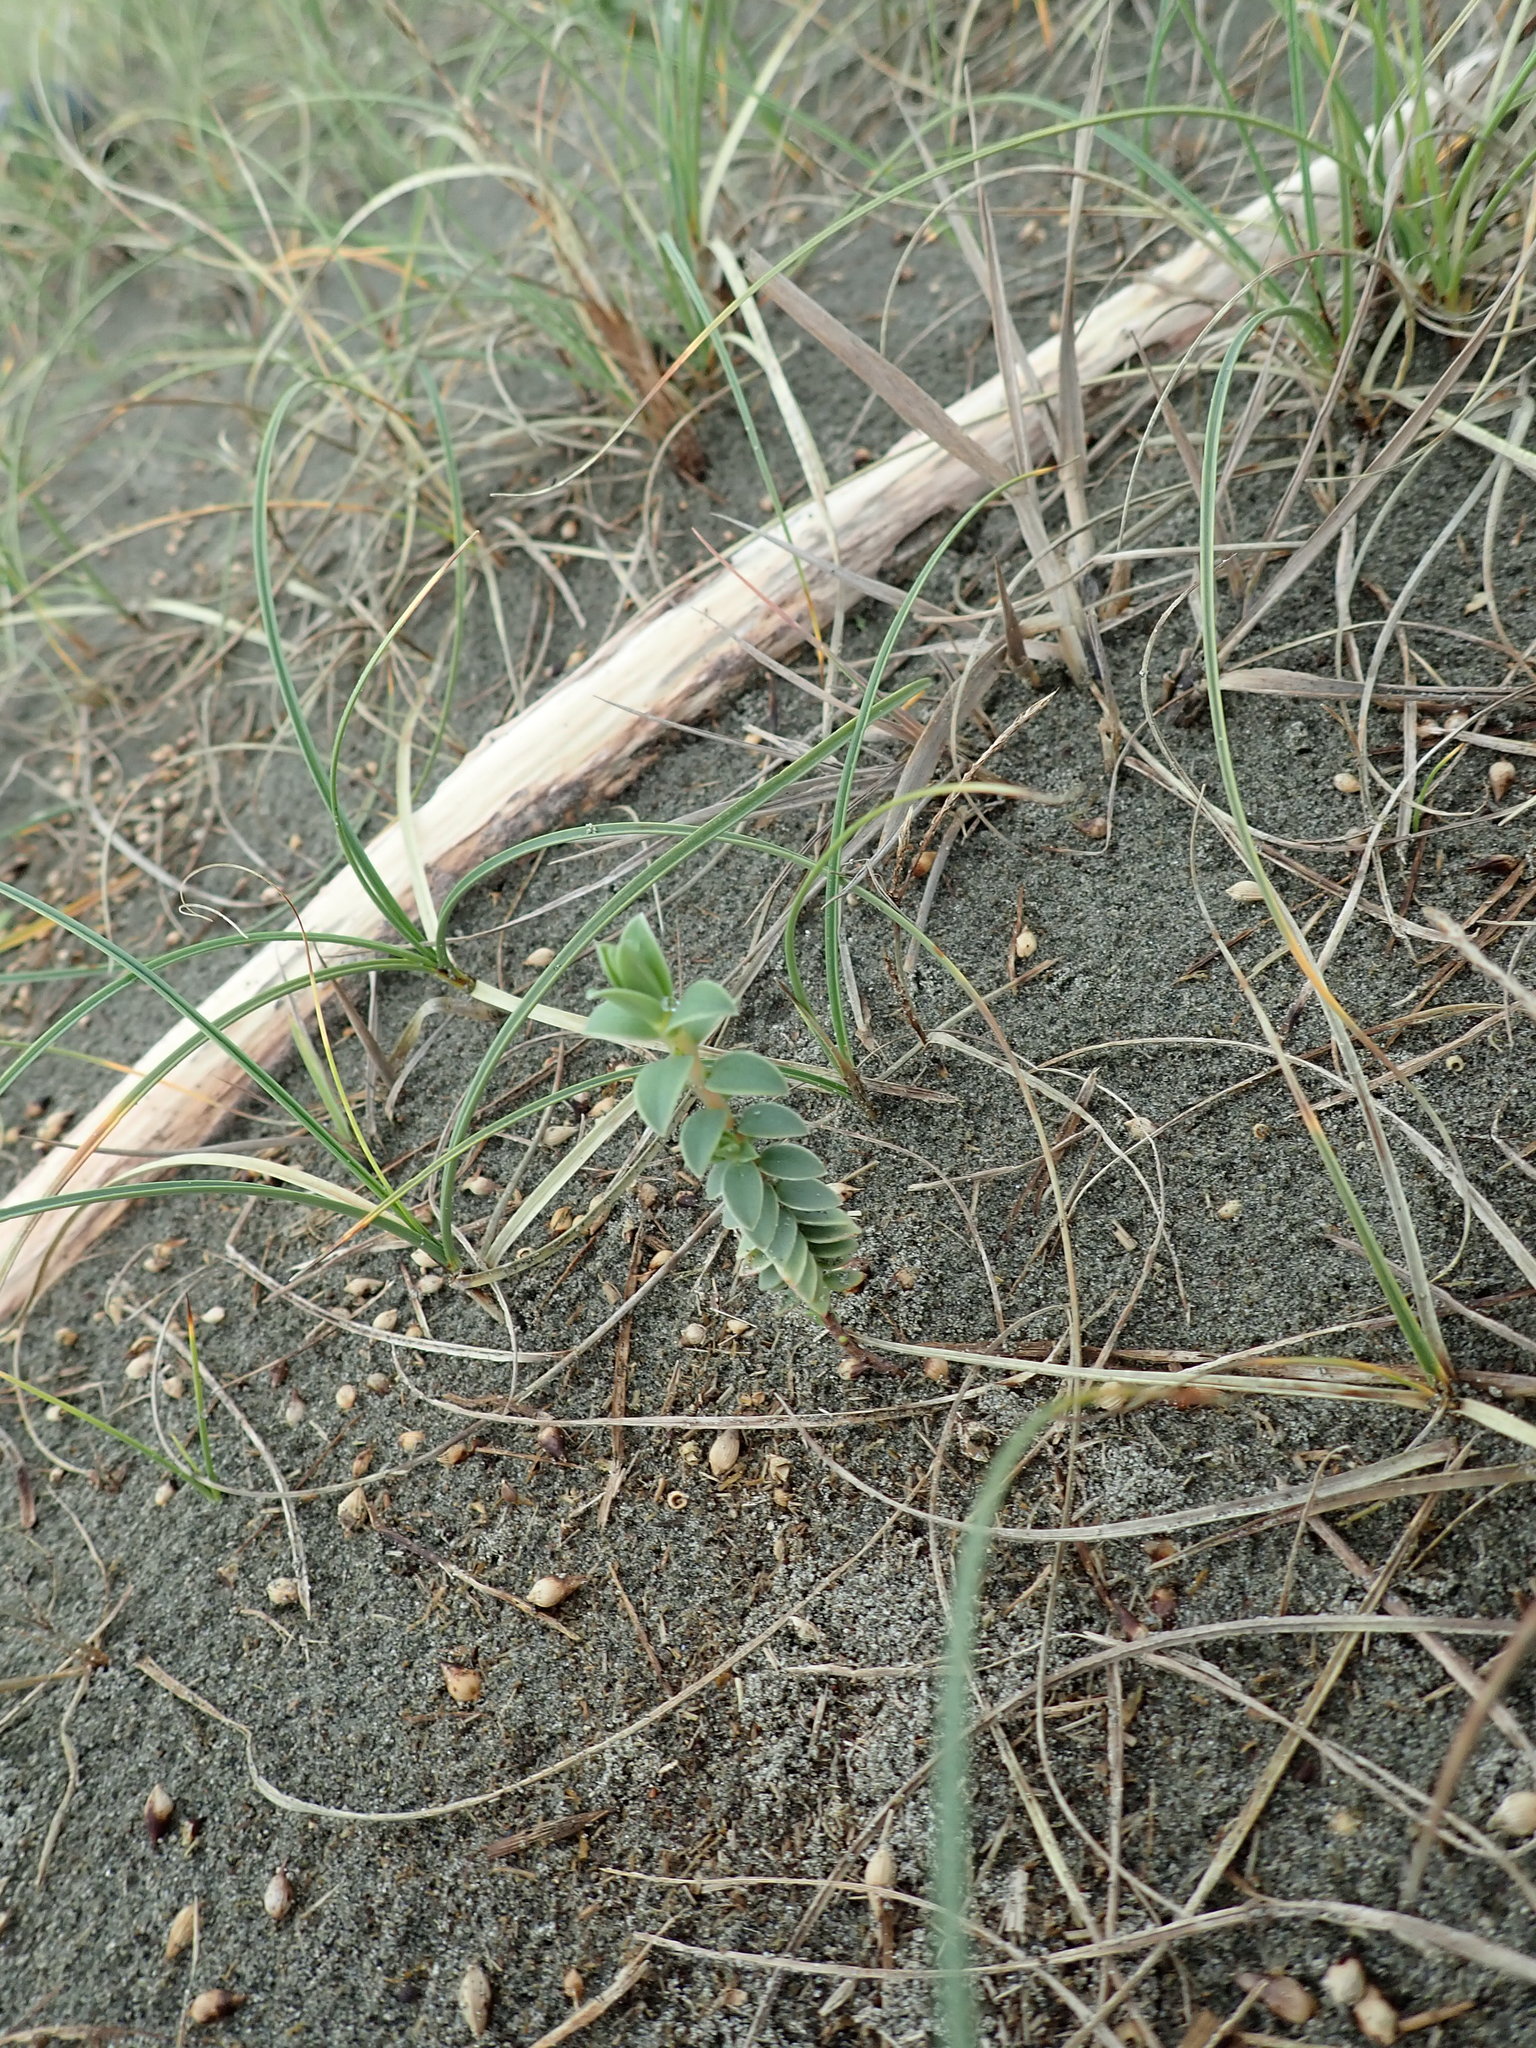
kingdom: Plantae
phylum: Tracheophyta
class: Magnoliopsida
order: Malvales
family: Thymelaeaceae
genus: Pimelea
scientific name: Pimelea villosa
